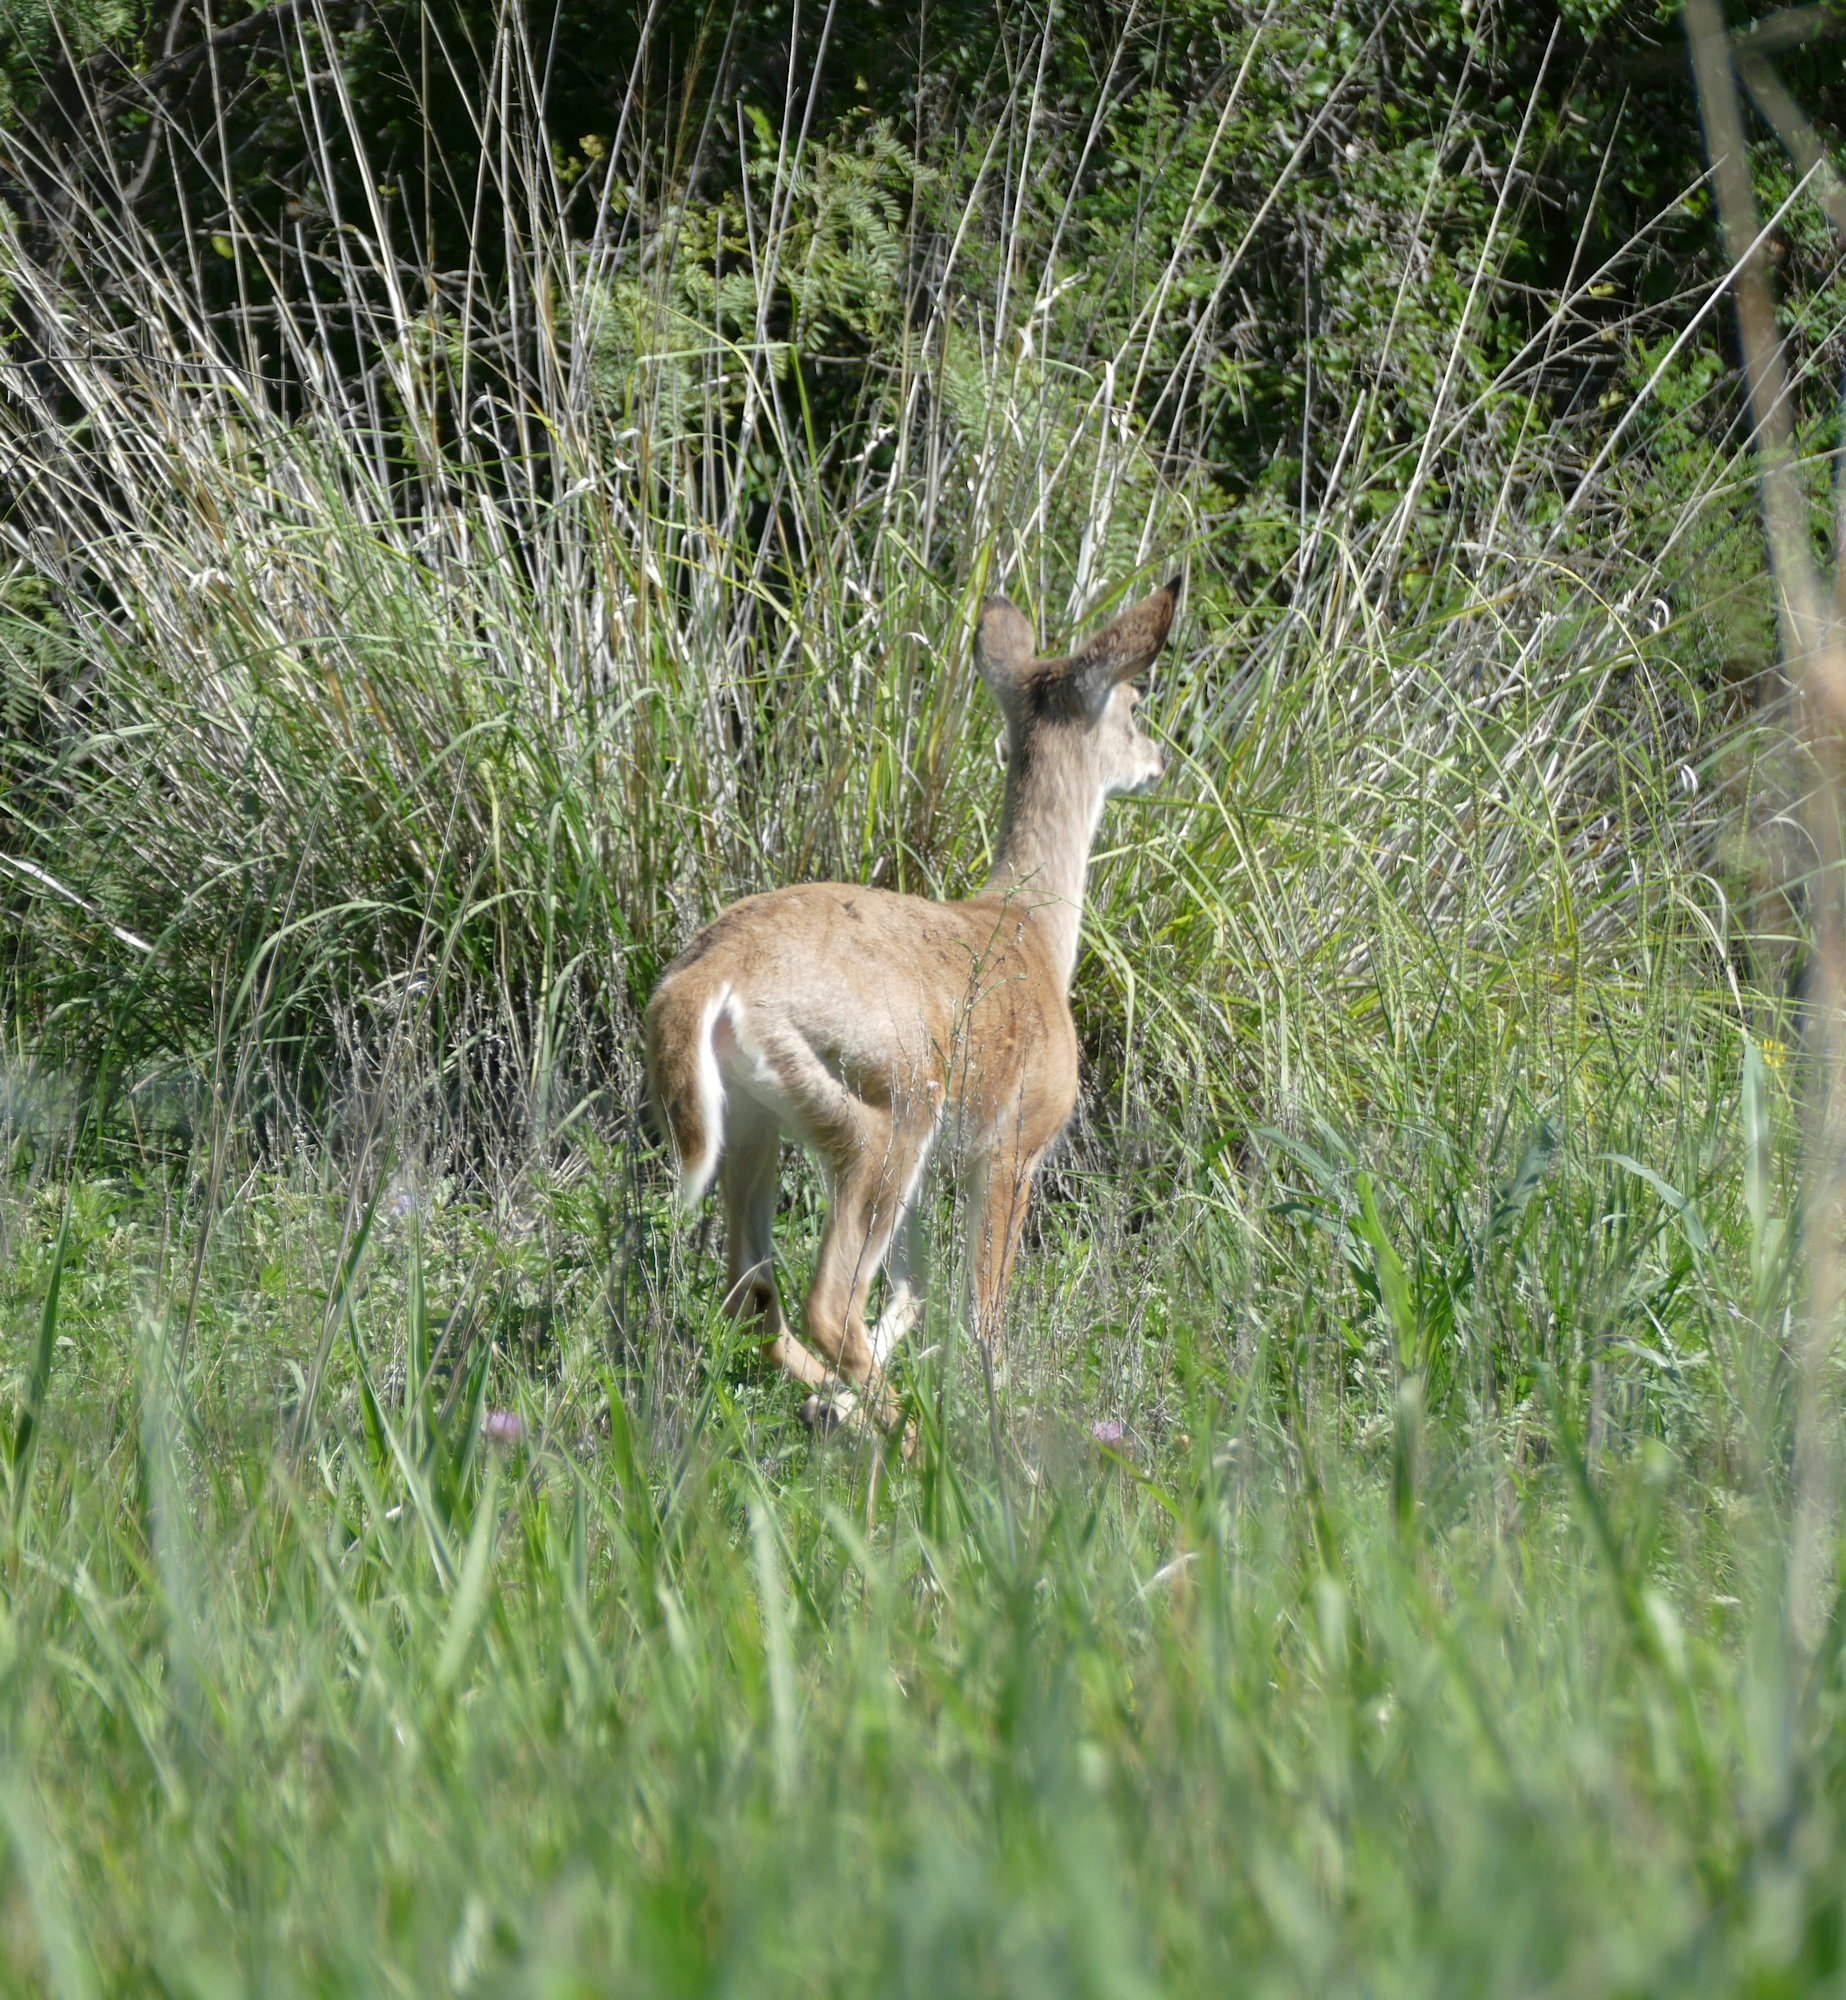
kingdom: Animalia
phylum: Chordata
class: Mammalia
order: Artiodactyla
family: Cervidae
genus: Odocoileus
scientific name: Odocoileus virginianus
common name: White-tailed deer
